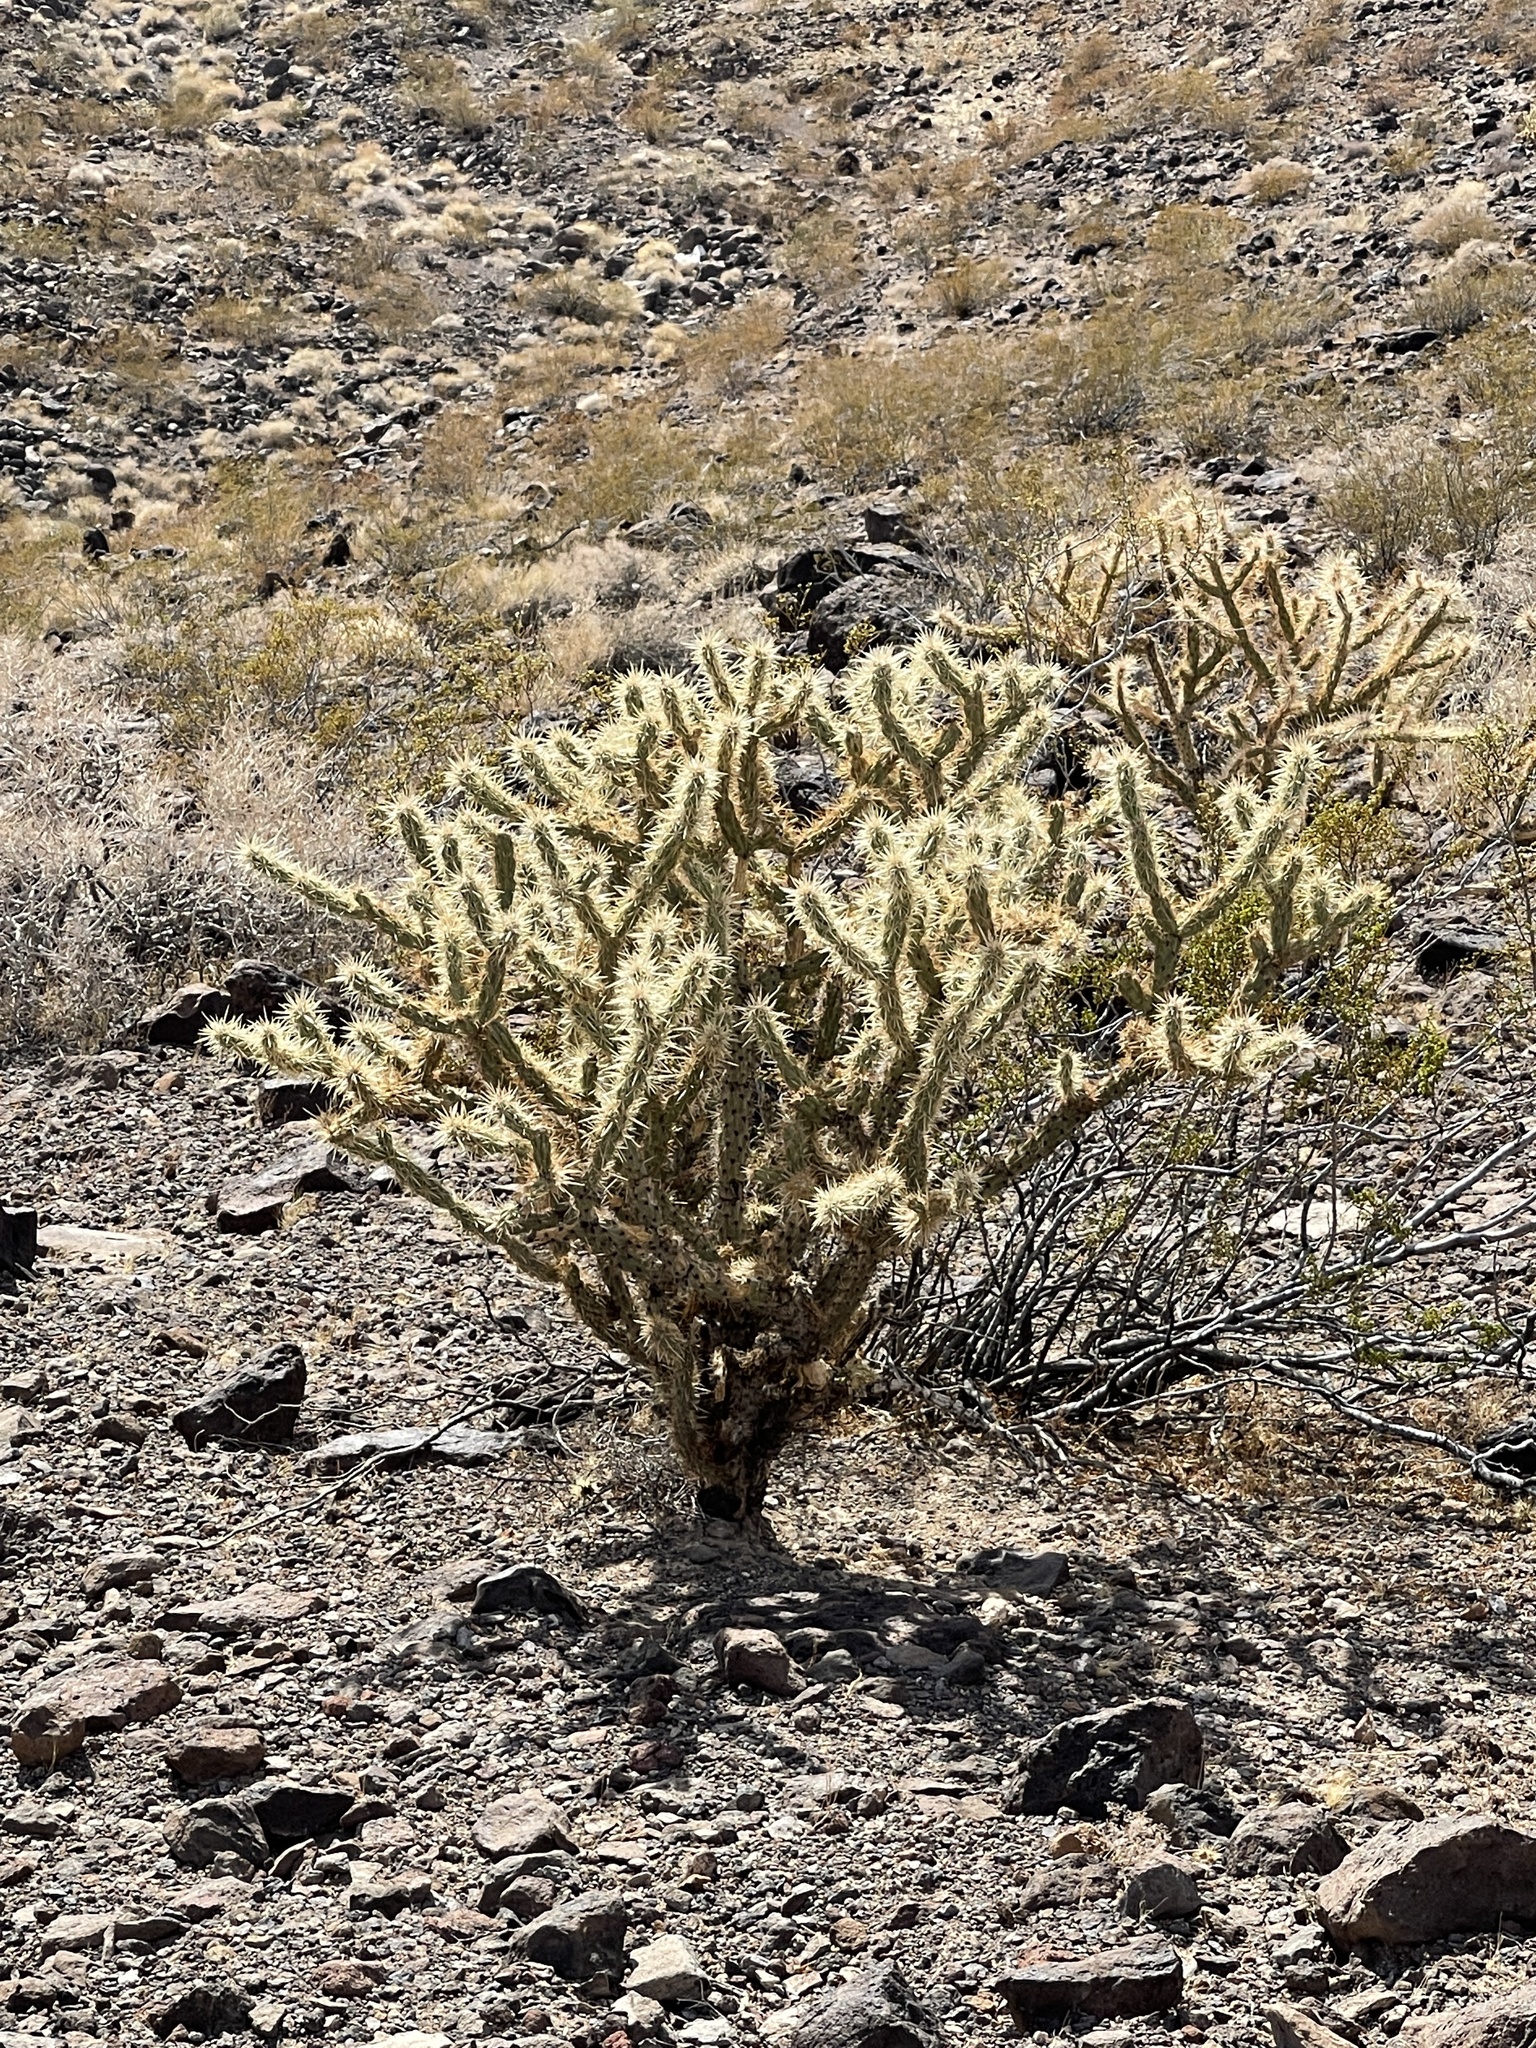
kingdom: Plantae
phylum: Tracheophyta
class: Magnoliopsida
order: Caryophyllales
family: Cactaceae
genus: Cylindropuntia
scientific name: Cylindropuntia acanthocarpa
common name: Buckhorn cholla
